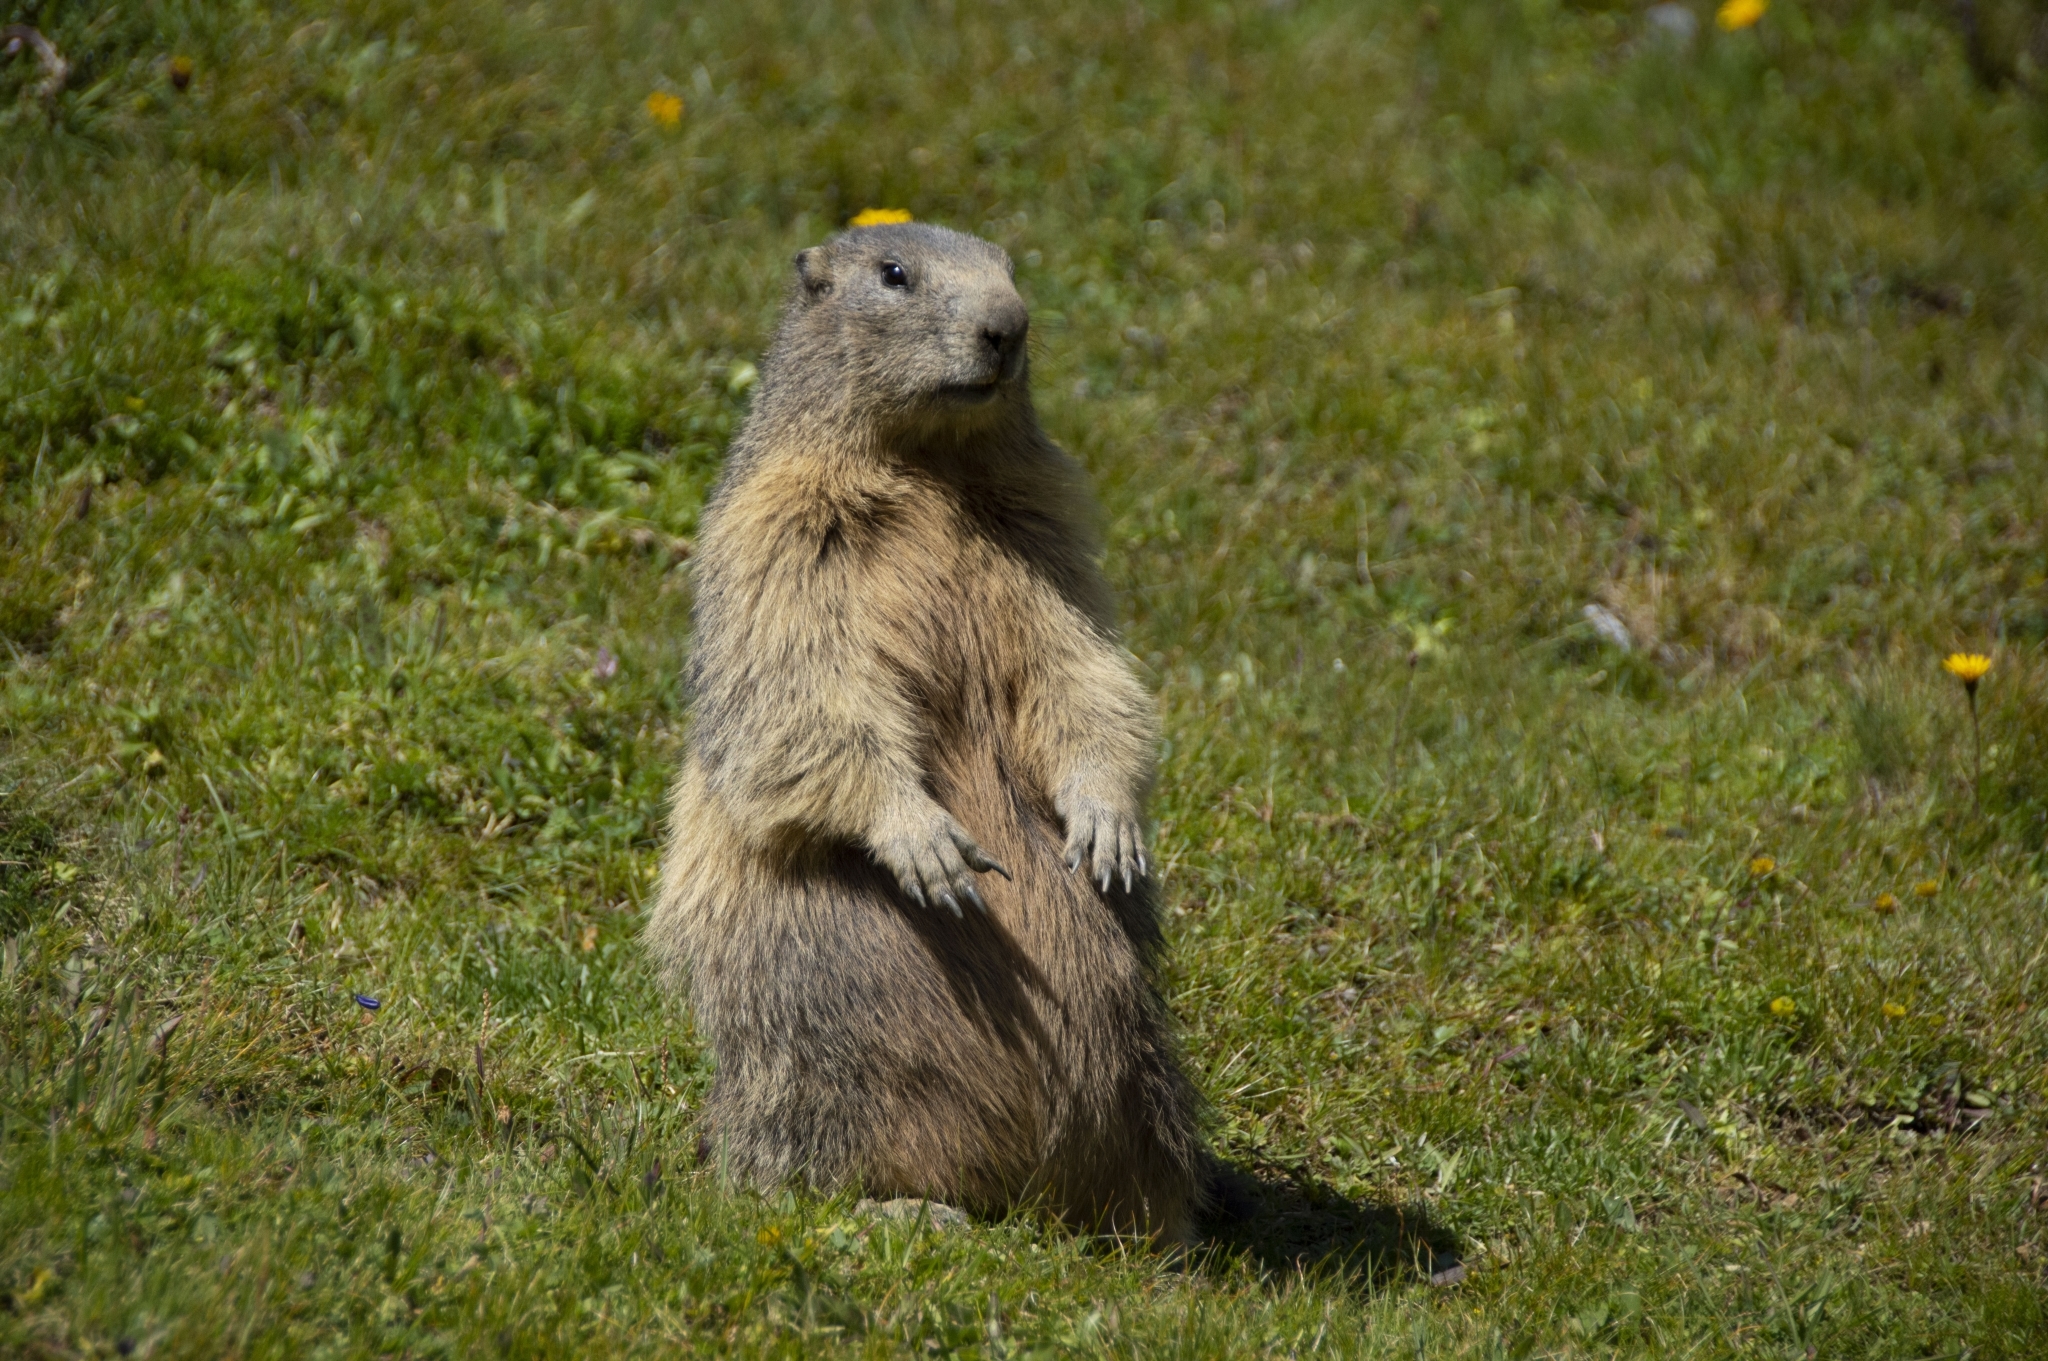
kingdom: Animalia
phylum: Chordata
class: Mammalia
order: Rodentia
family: Sciuridae
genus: Marmota
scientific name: Marmota marmota
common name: Alpine marmot
